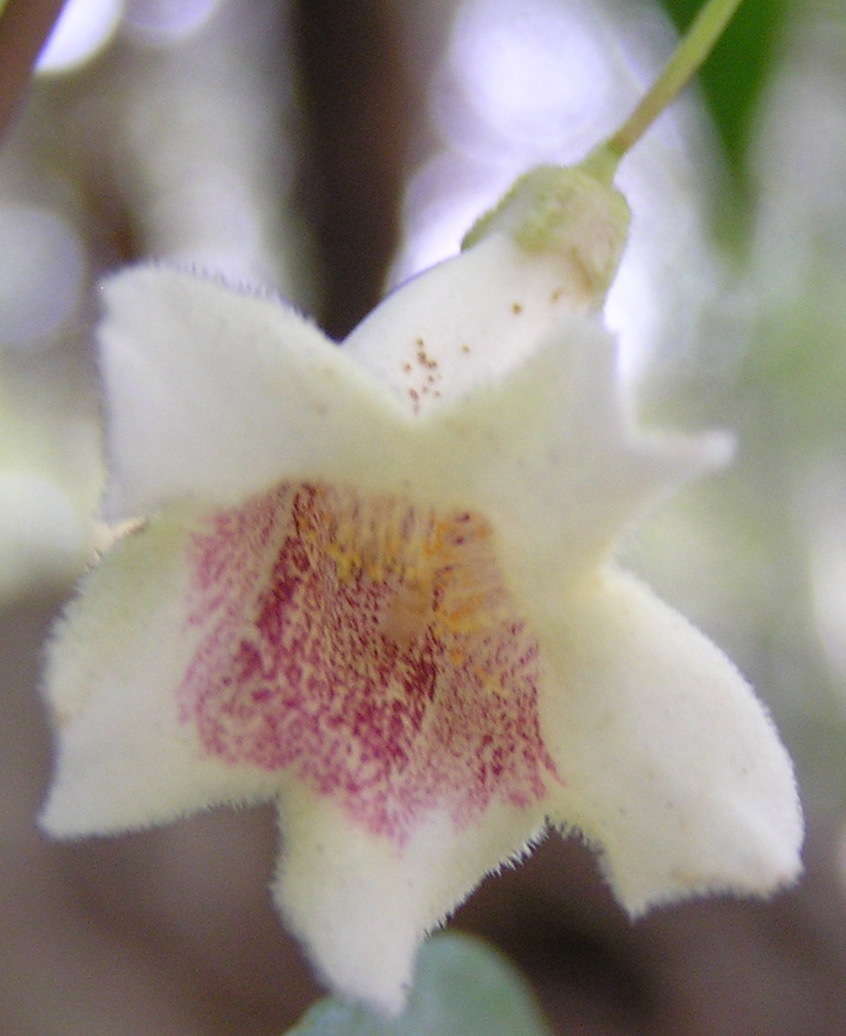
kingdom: Plantae
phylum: Tracheophyta
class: Magnoliopsida
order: Lamiales
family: Bignoniaceae
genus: Pandorea
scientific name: Pandorea pandorana
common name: Wonga-wonga-vine
